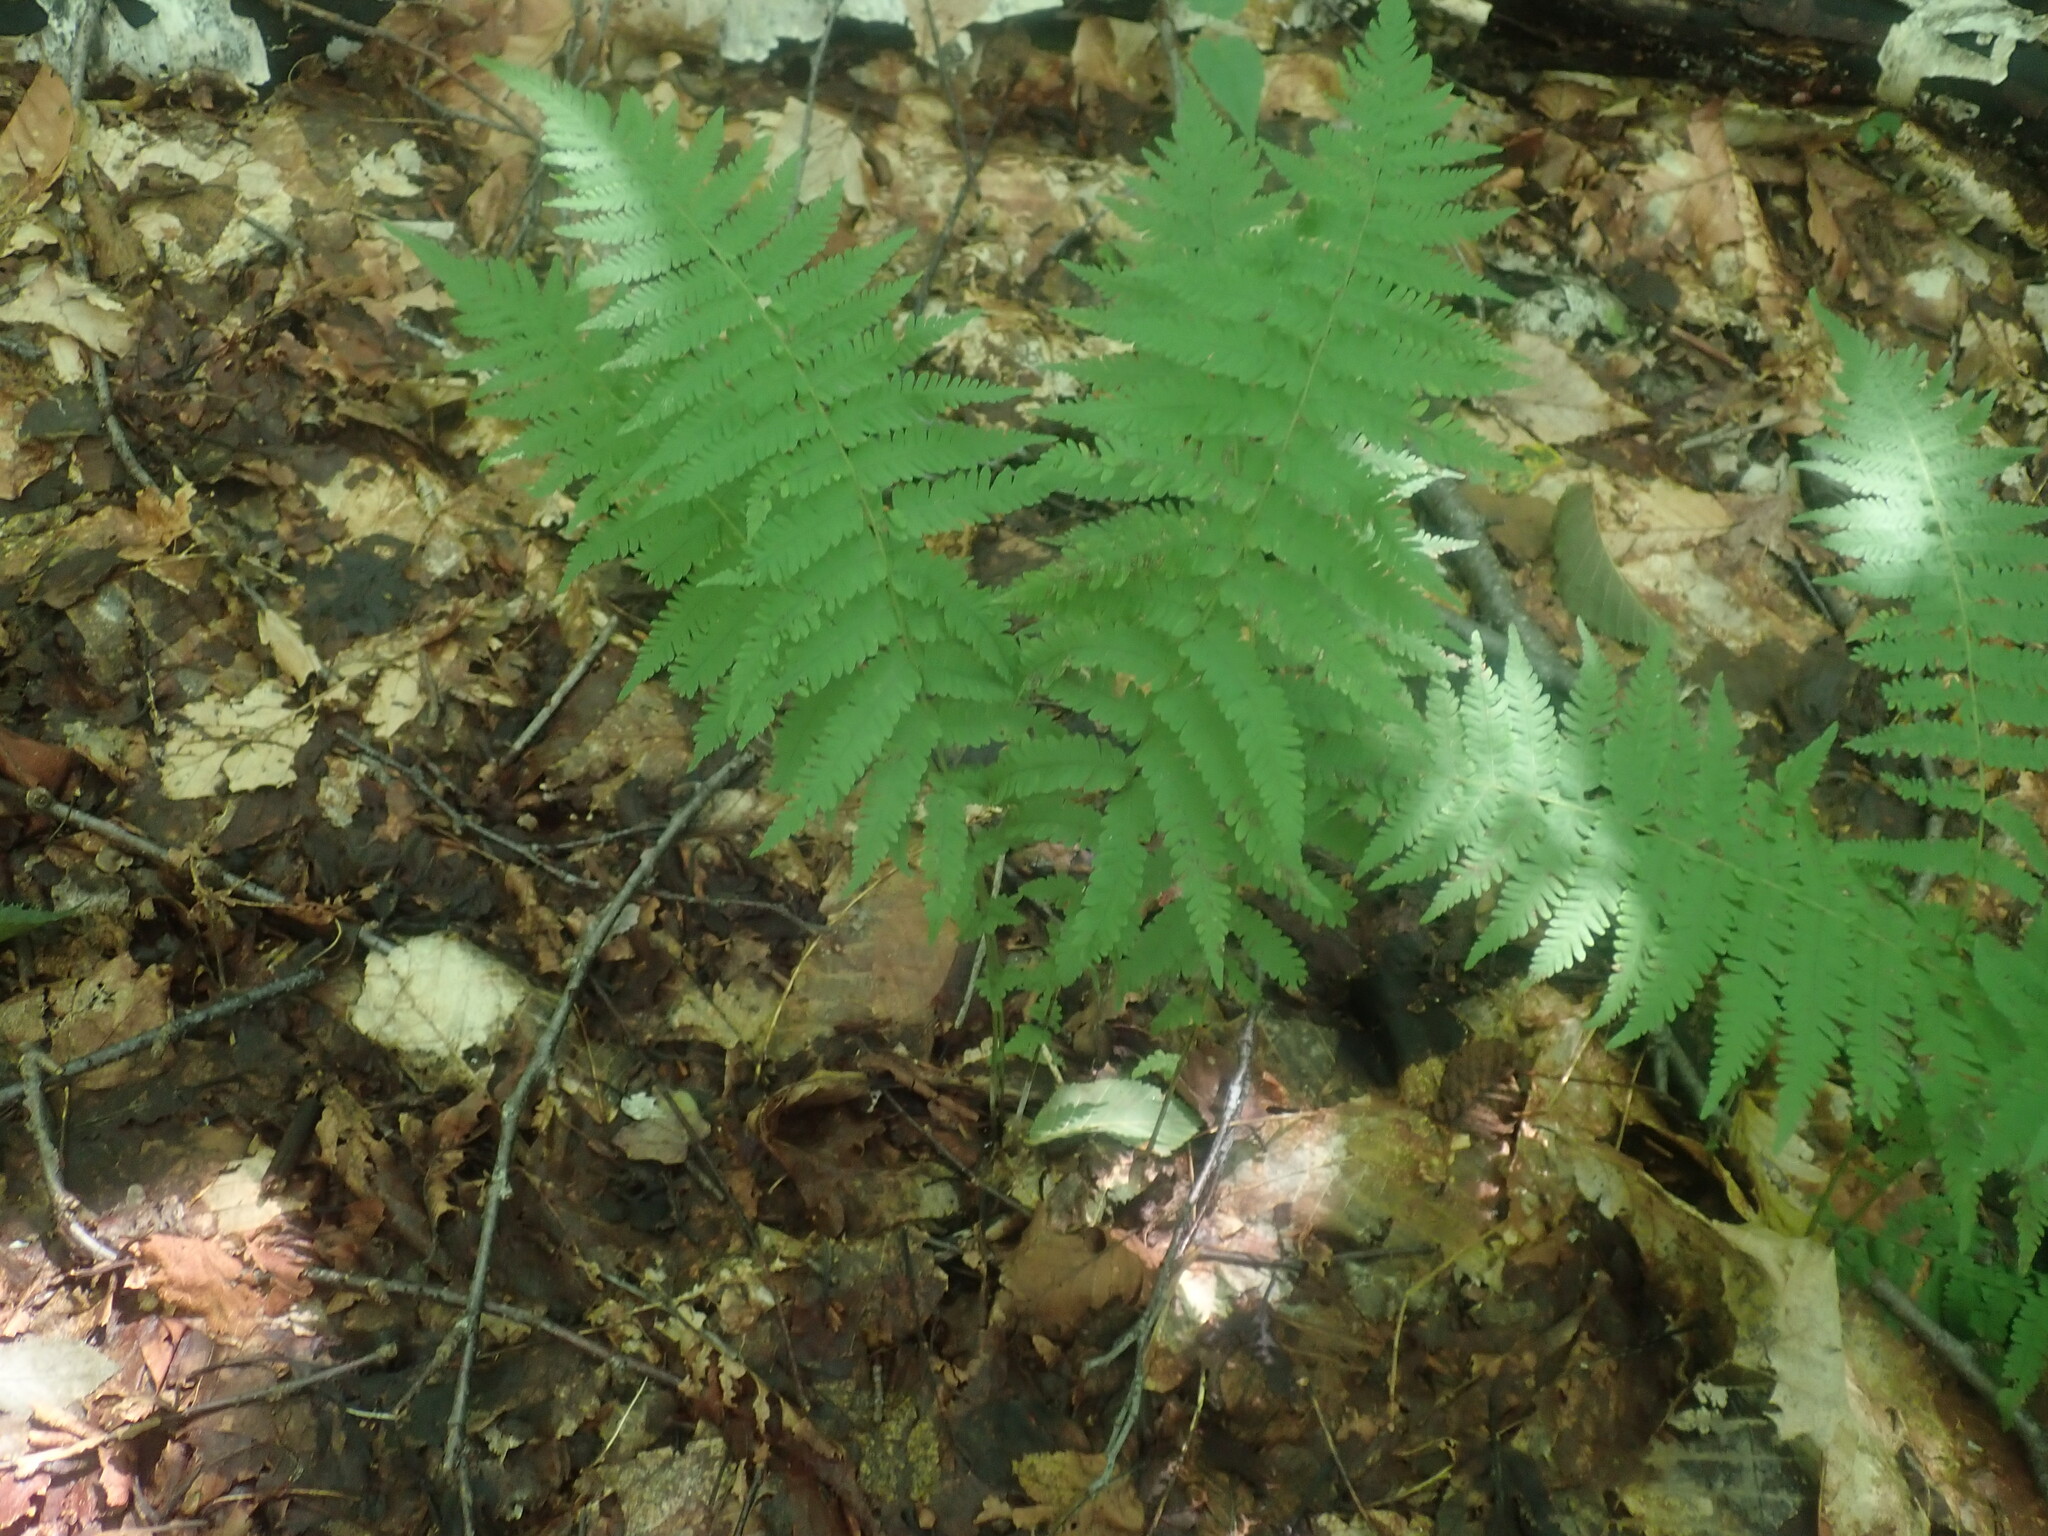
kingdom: Plantae
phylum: Tracheophyta
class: Polypodiopsida
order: Polypodiales
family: Thelypteridaceae
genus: Amauropelta
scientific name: Amauropelta noveboracensis
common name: New york fern
